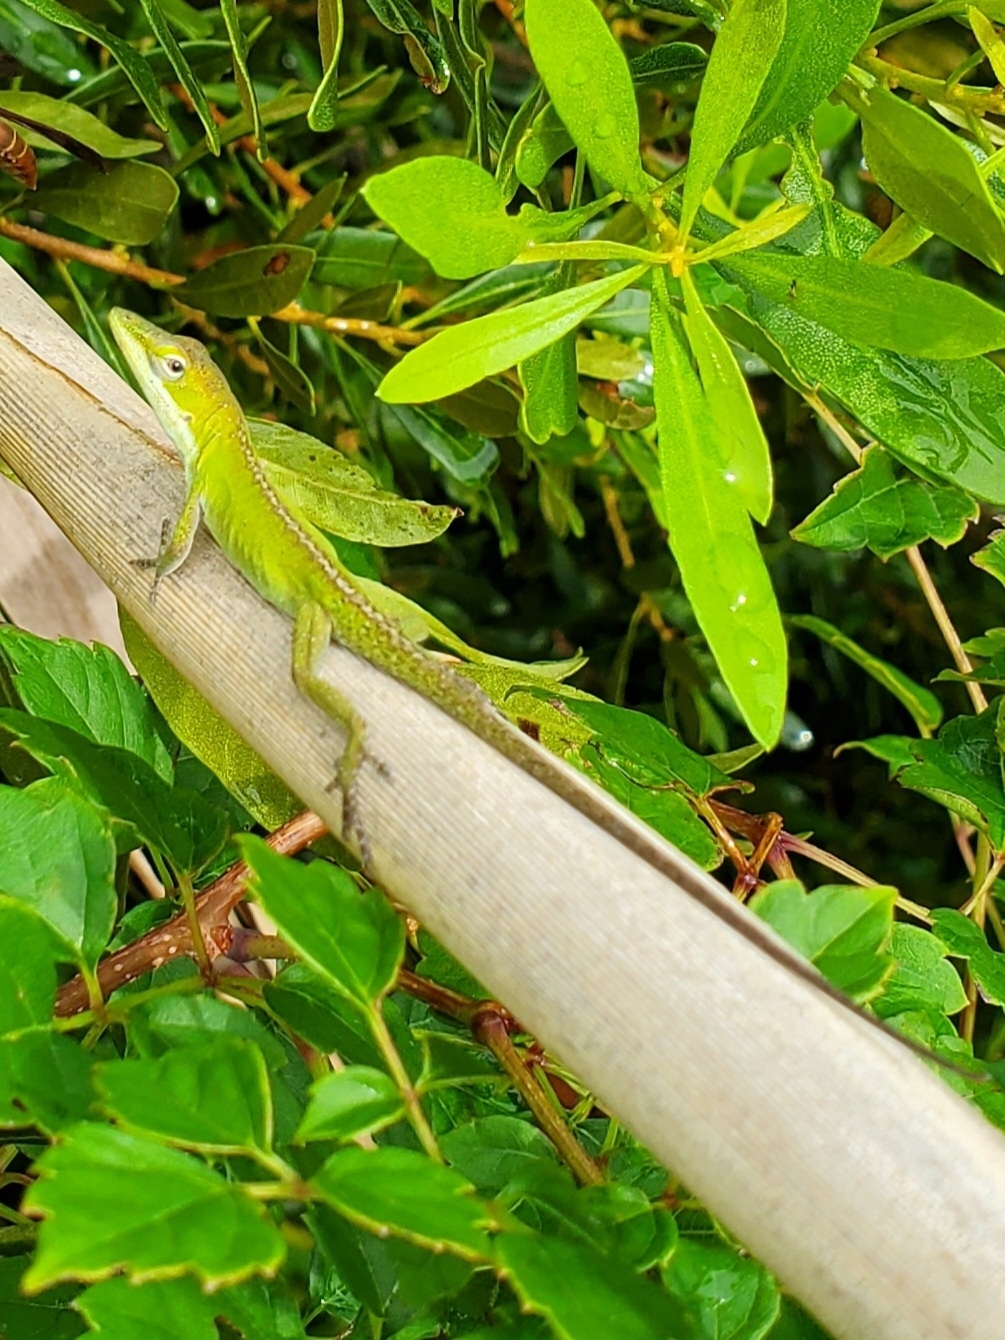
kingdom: Animalia
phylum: Chordata
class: Squamata
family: Dactyloidae
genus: Anolis
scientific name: Anolis carolinensis
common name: Green anole
